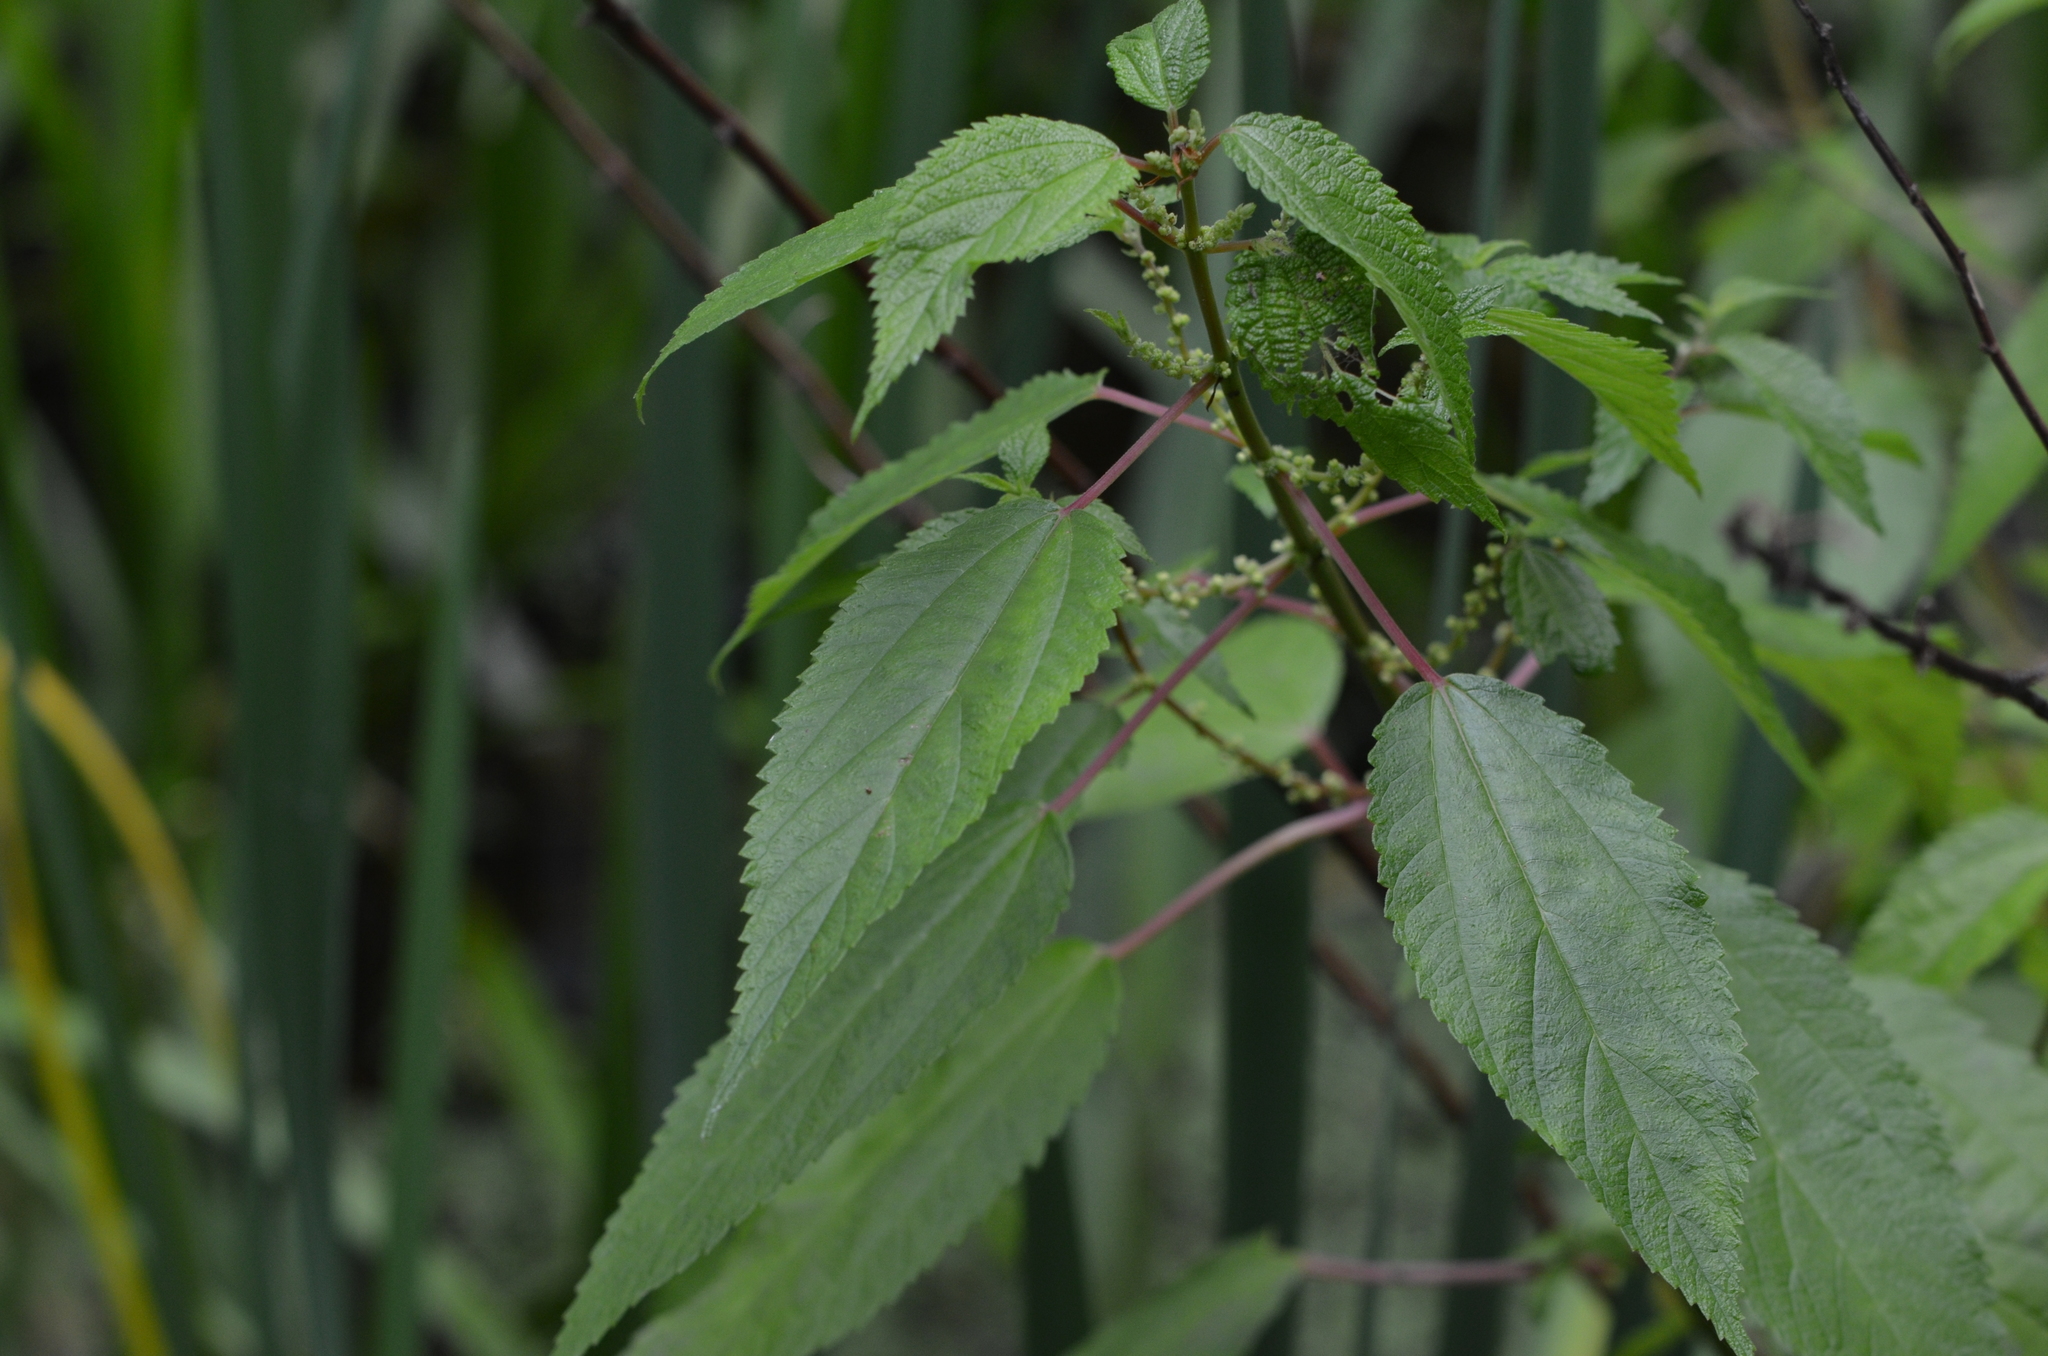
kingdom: Plantae
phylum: Tracheophyta
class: Magnoliopsida
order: Rosales
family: Urticaceae
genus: Boehmeria
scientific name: Boehmeria cylindrica
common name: Bog-hemp
